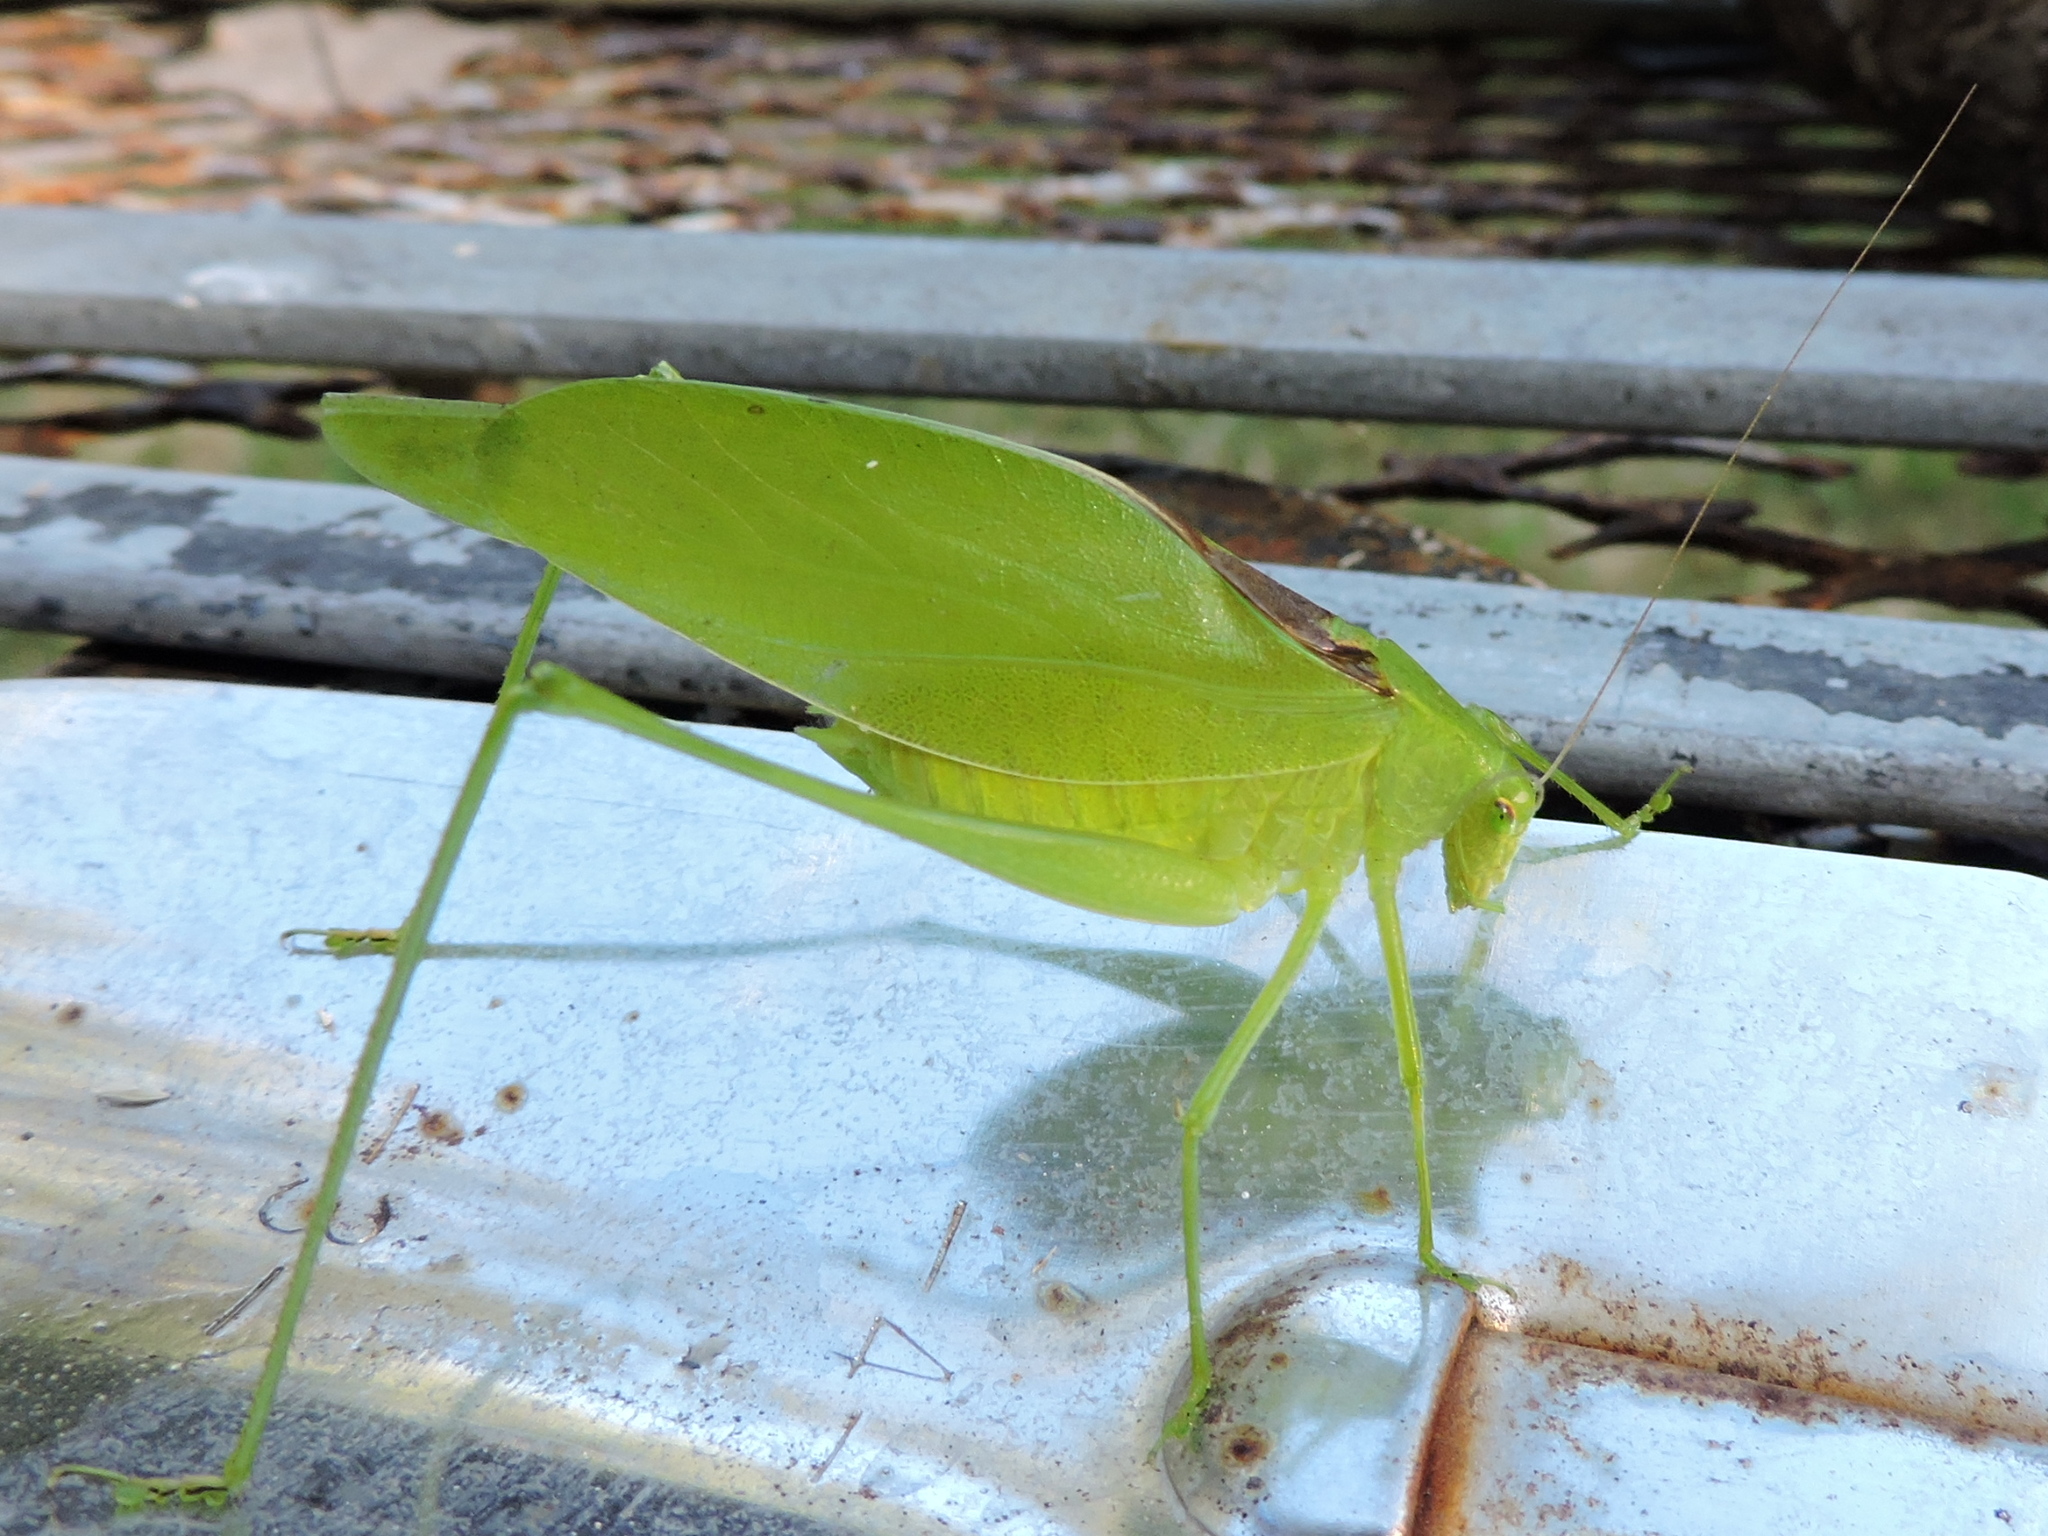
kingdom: Animalia
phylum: Arthropoda
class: Insecta
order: Orthoptera
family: Tettigoniidae
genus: Amblycorypha
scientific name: Amblycorypha oblongifolia
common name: Oblong-winged katydid
